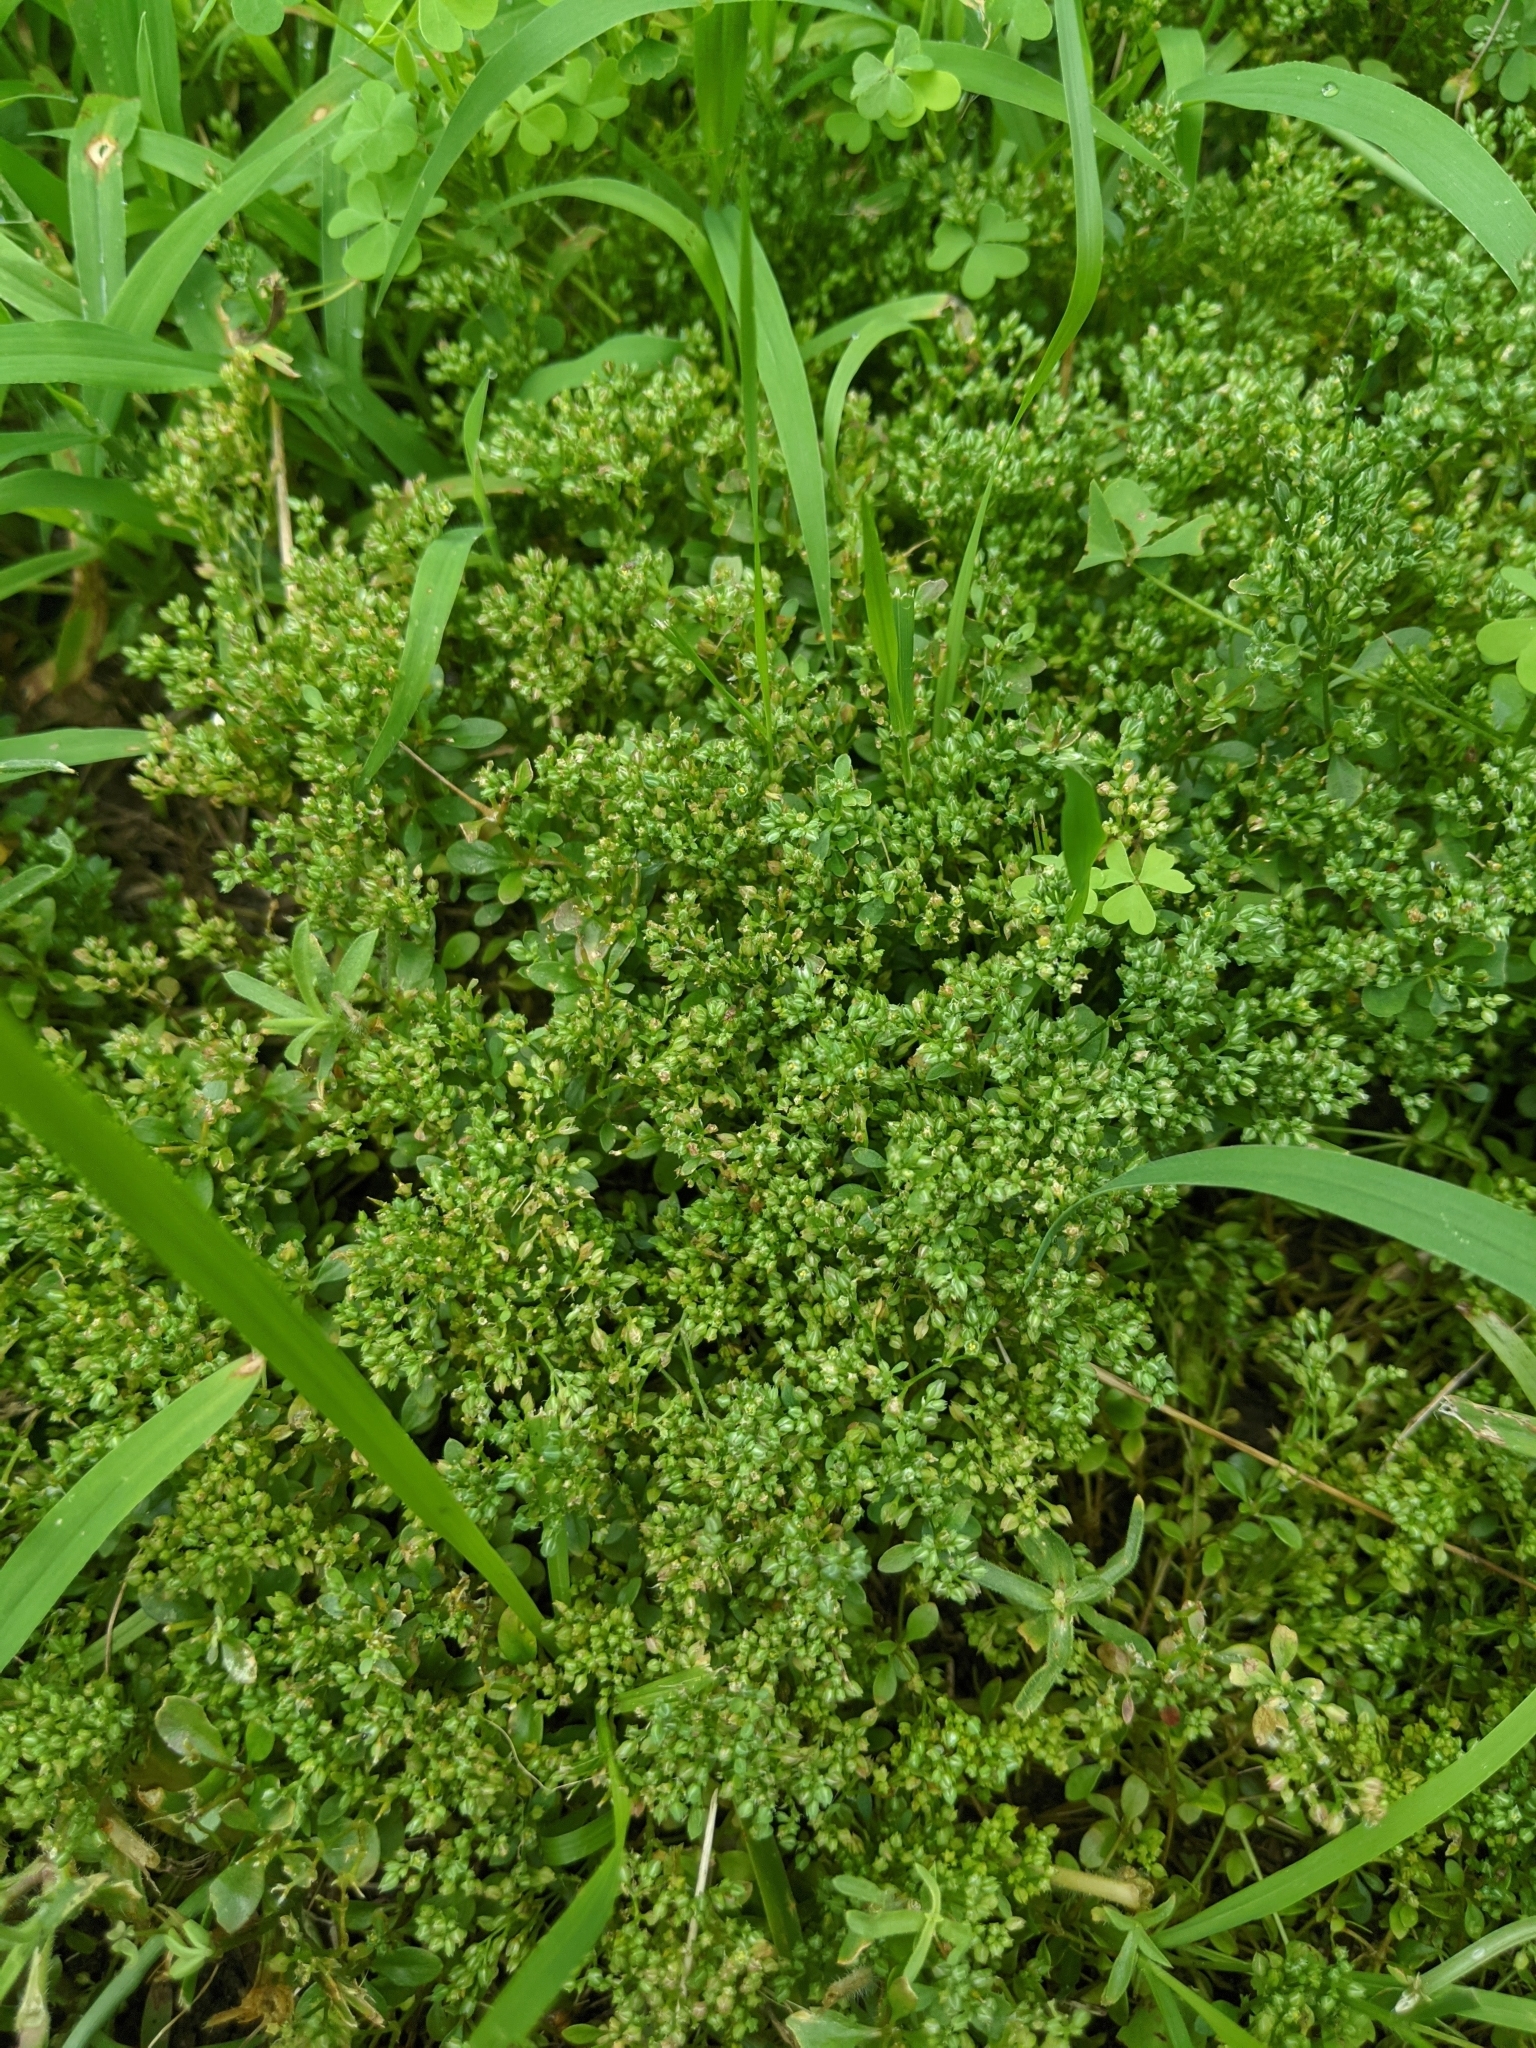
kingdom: Plantae
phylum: Tracheophyta
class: Magnoliopsida
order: Caryophyllales
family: Caryophyllaceae
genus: Polycarpon
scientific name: Polycarpon tetraphyllum
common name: Four-leaved all-seed
